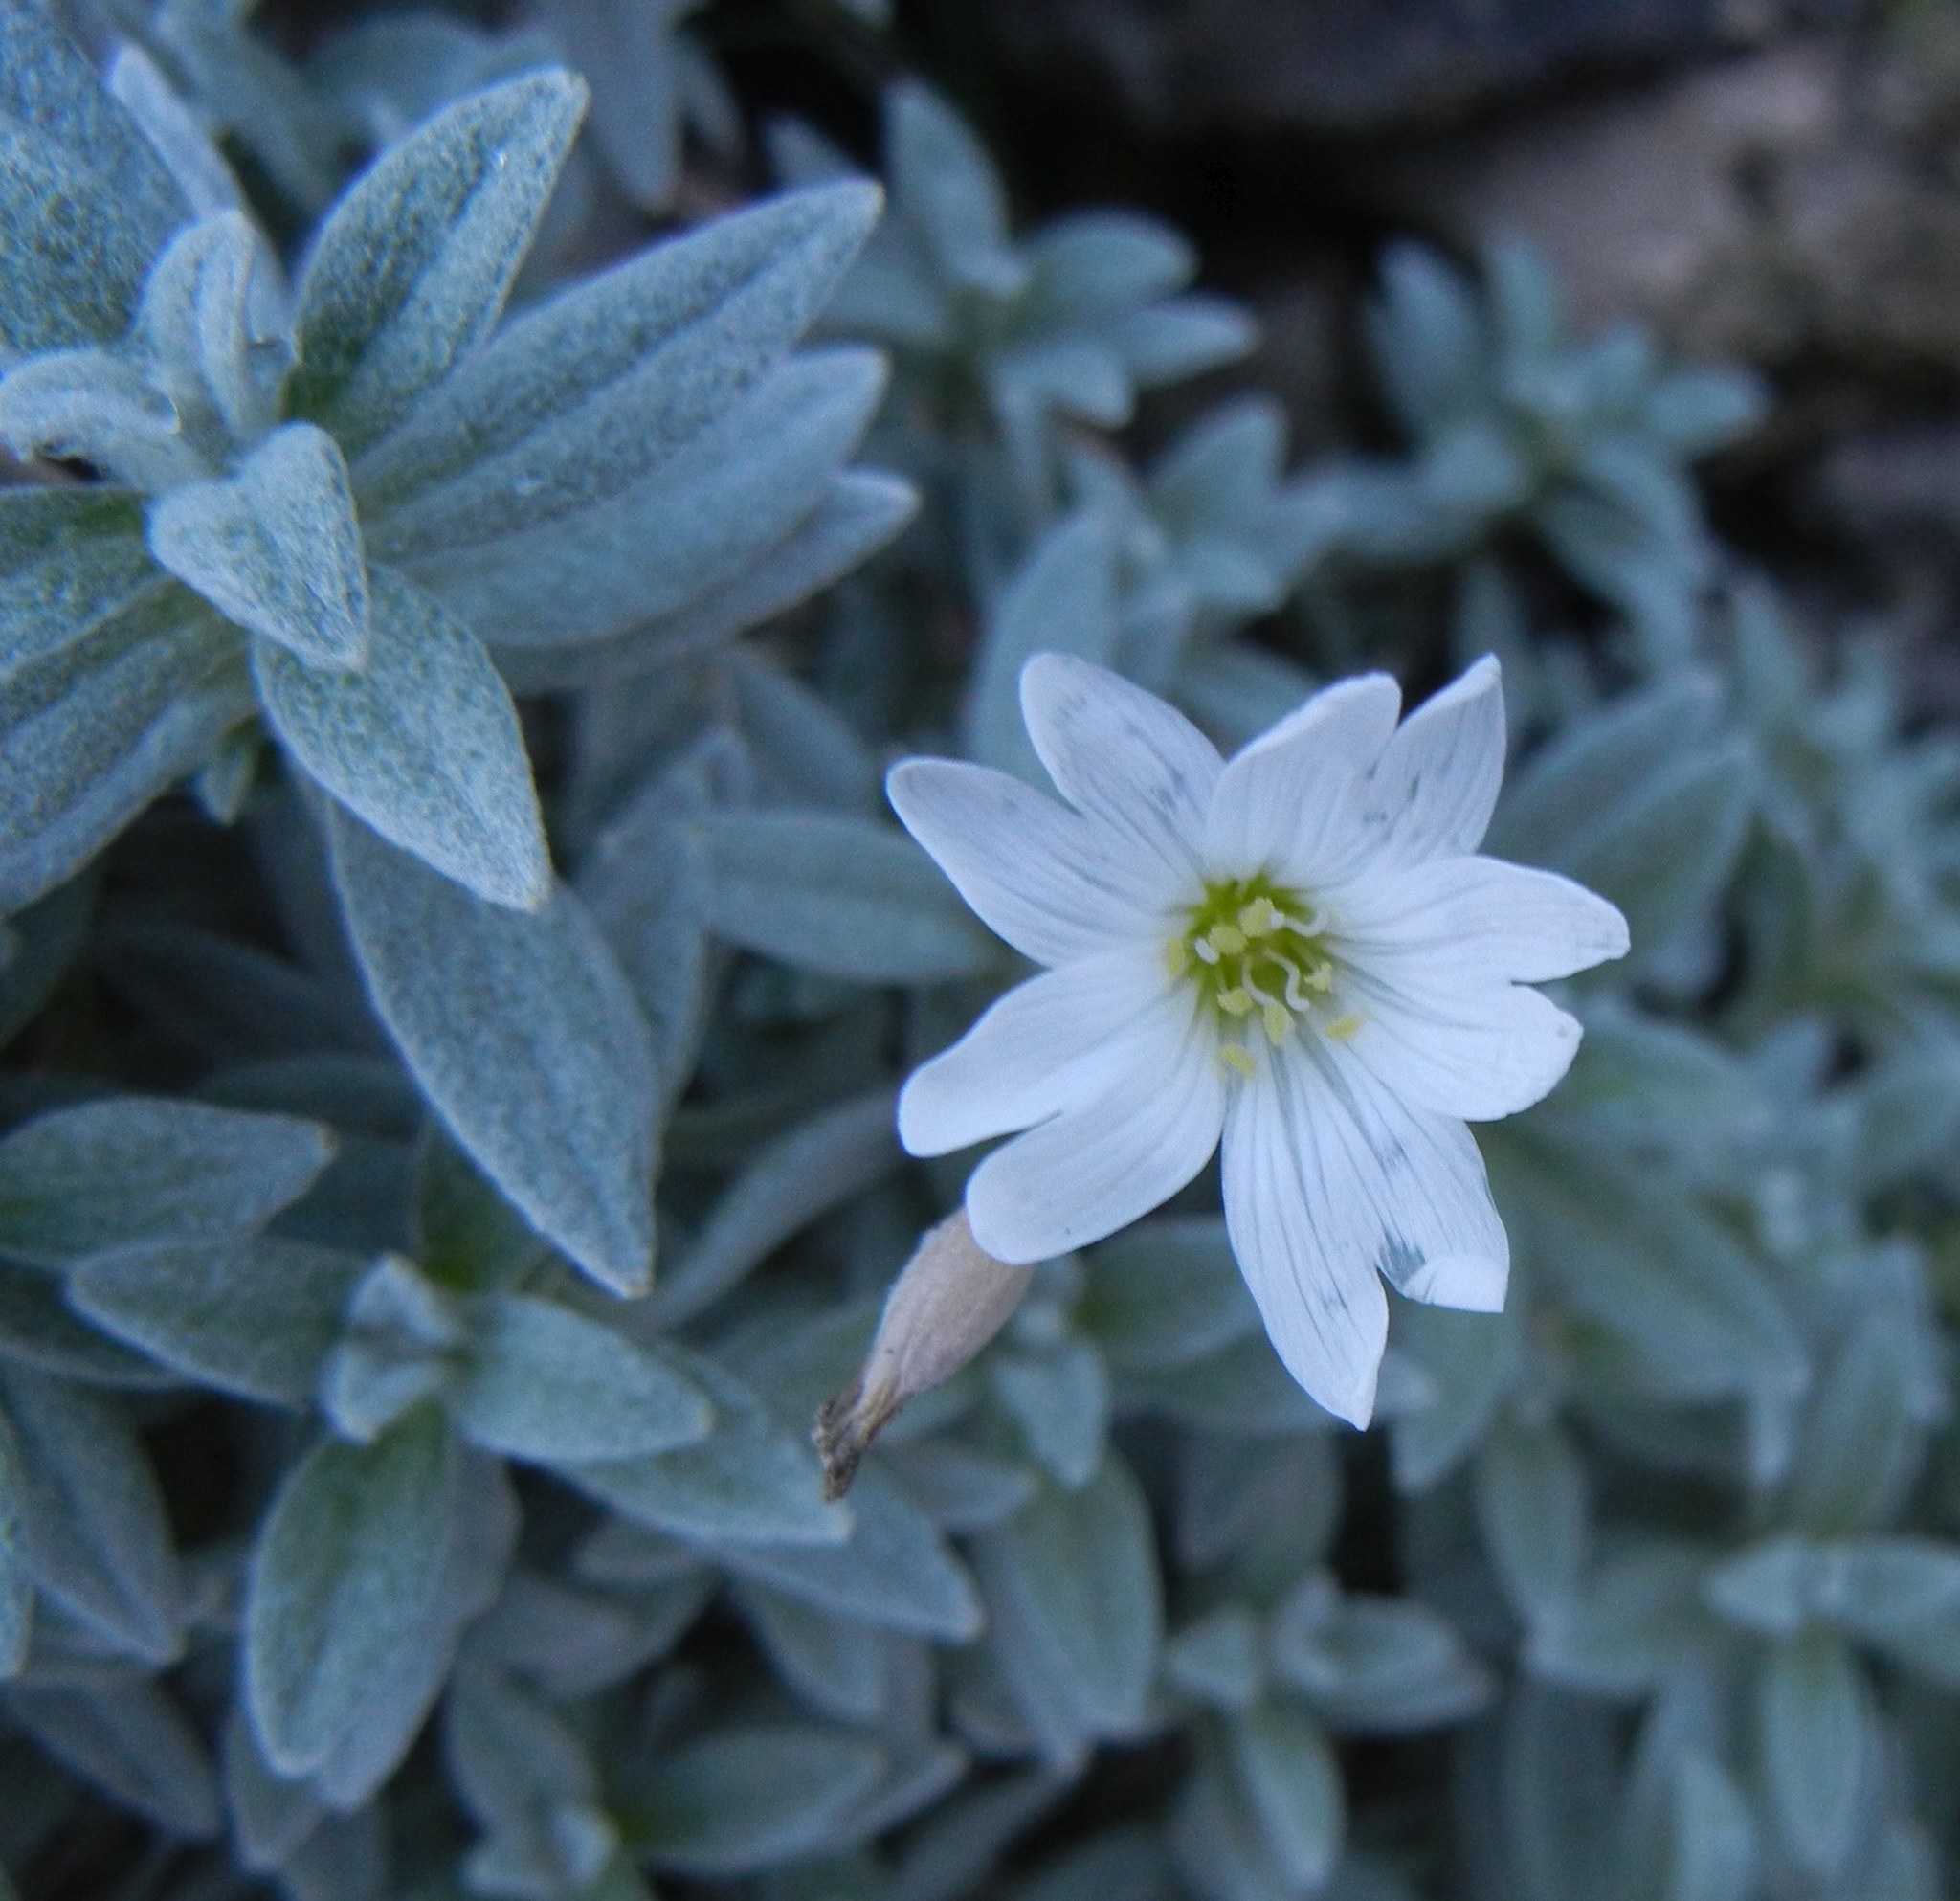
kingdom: Plantae
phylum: Tracheophyta
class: Magnoliopsida
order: Caryophyllales
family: Caryophyllaceae
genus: Cerastium
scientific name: Cerastium tomentosum
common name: Snow-in-summer
